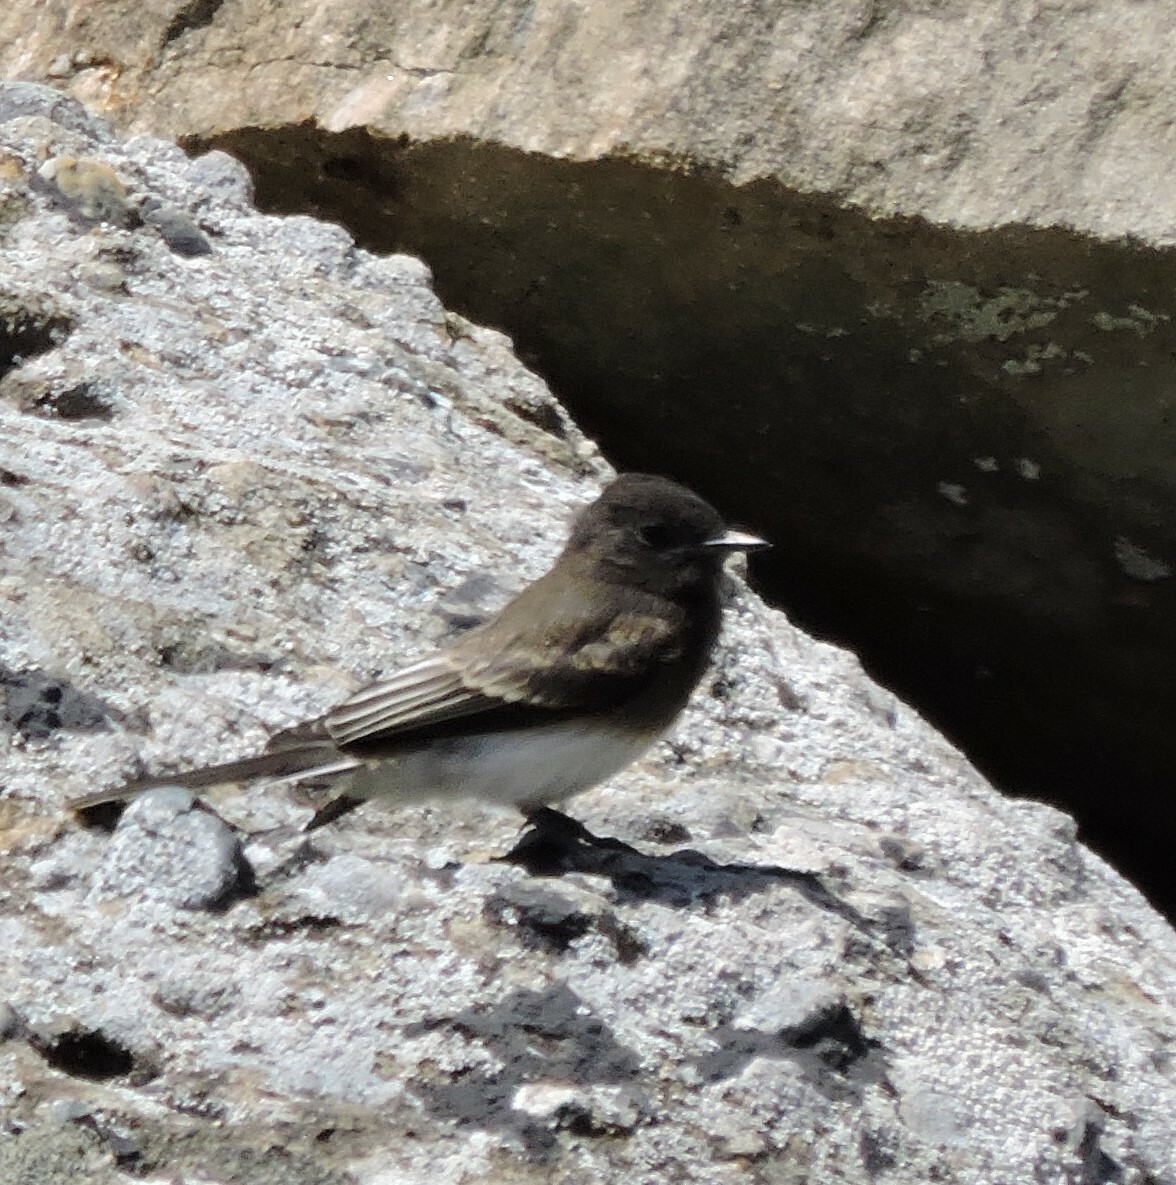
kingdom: Animalia
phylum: Chordata
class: Aves
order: Passeriformes
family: Tyrannidae
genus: Sayornis
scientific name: Sayornis nigricans
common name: Black phoebe
